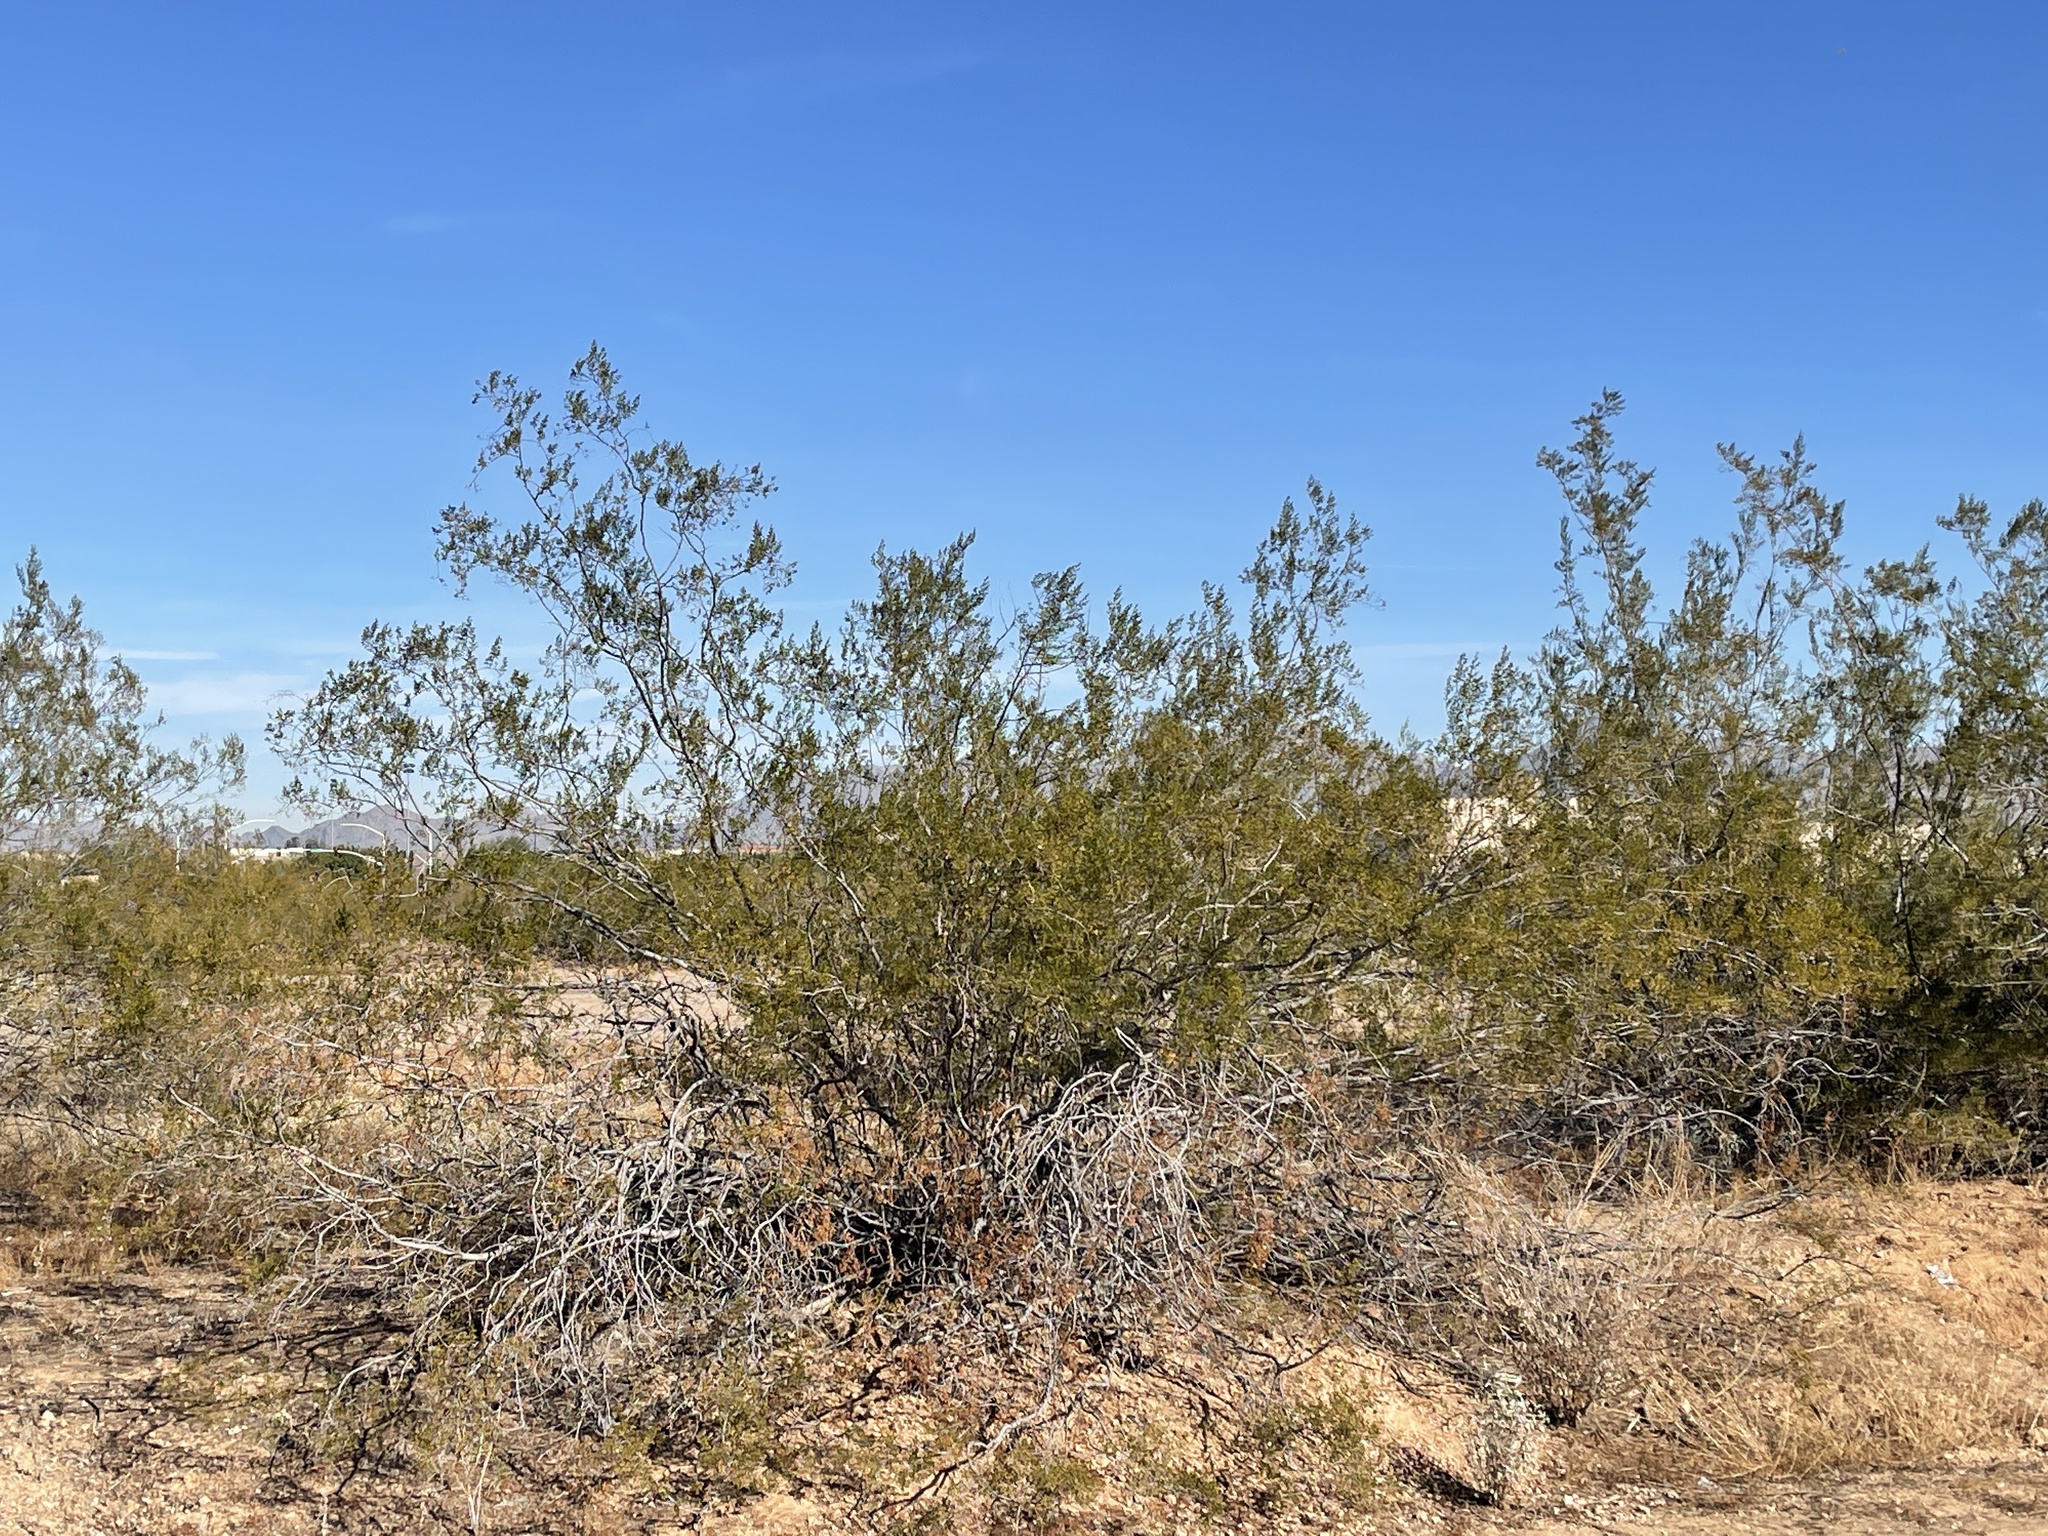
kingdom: Plantae
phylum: Tracheophyta
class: Magnoliopsida
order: Zygophyllales
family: Zygophyllaceae
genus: Larrea
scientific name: Larrea tridentata
